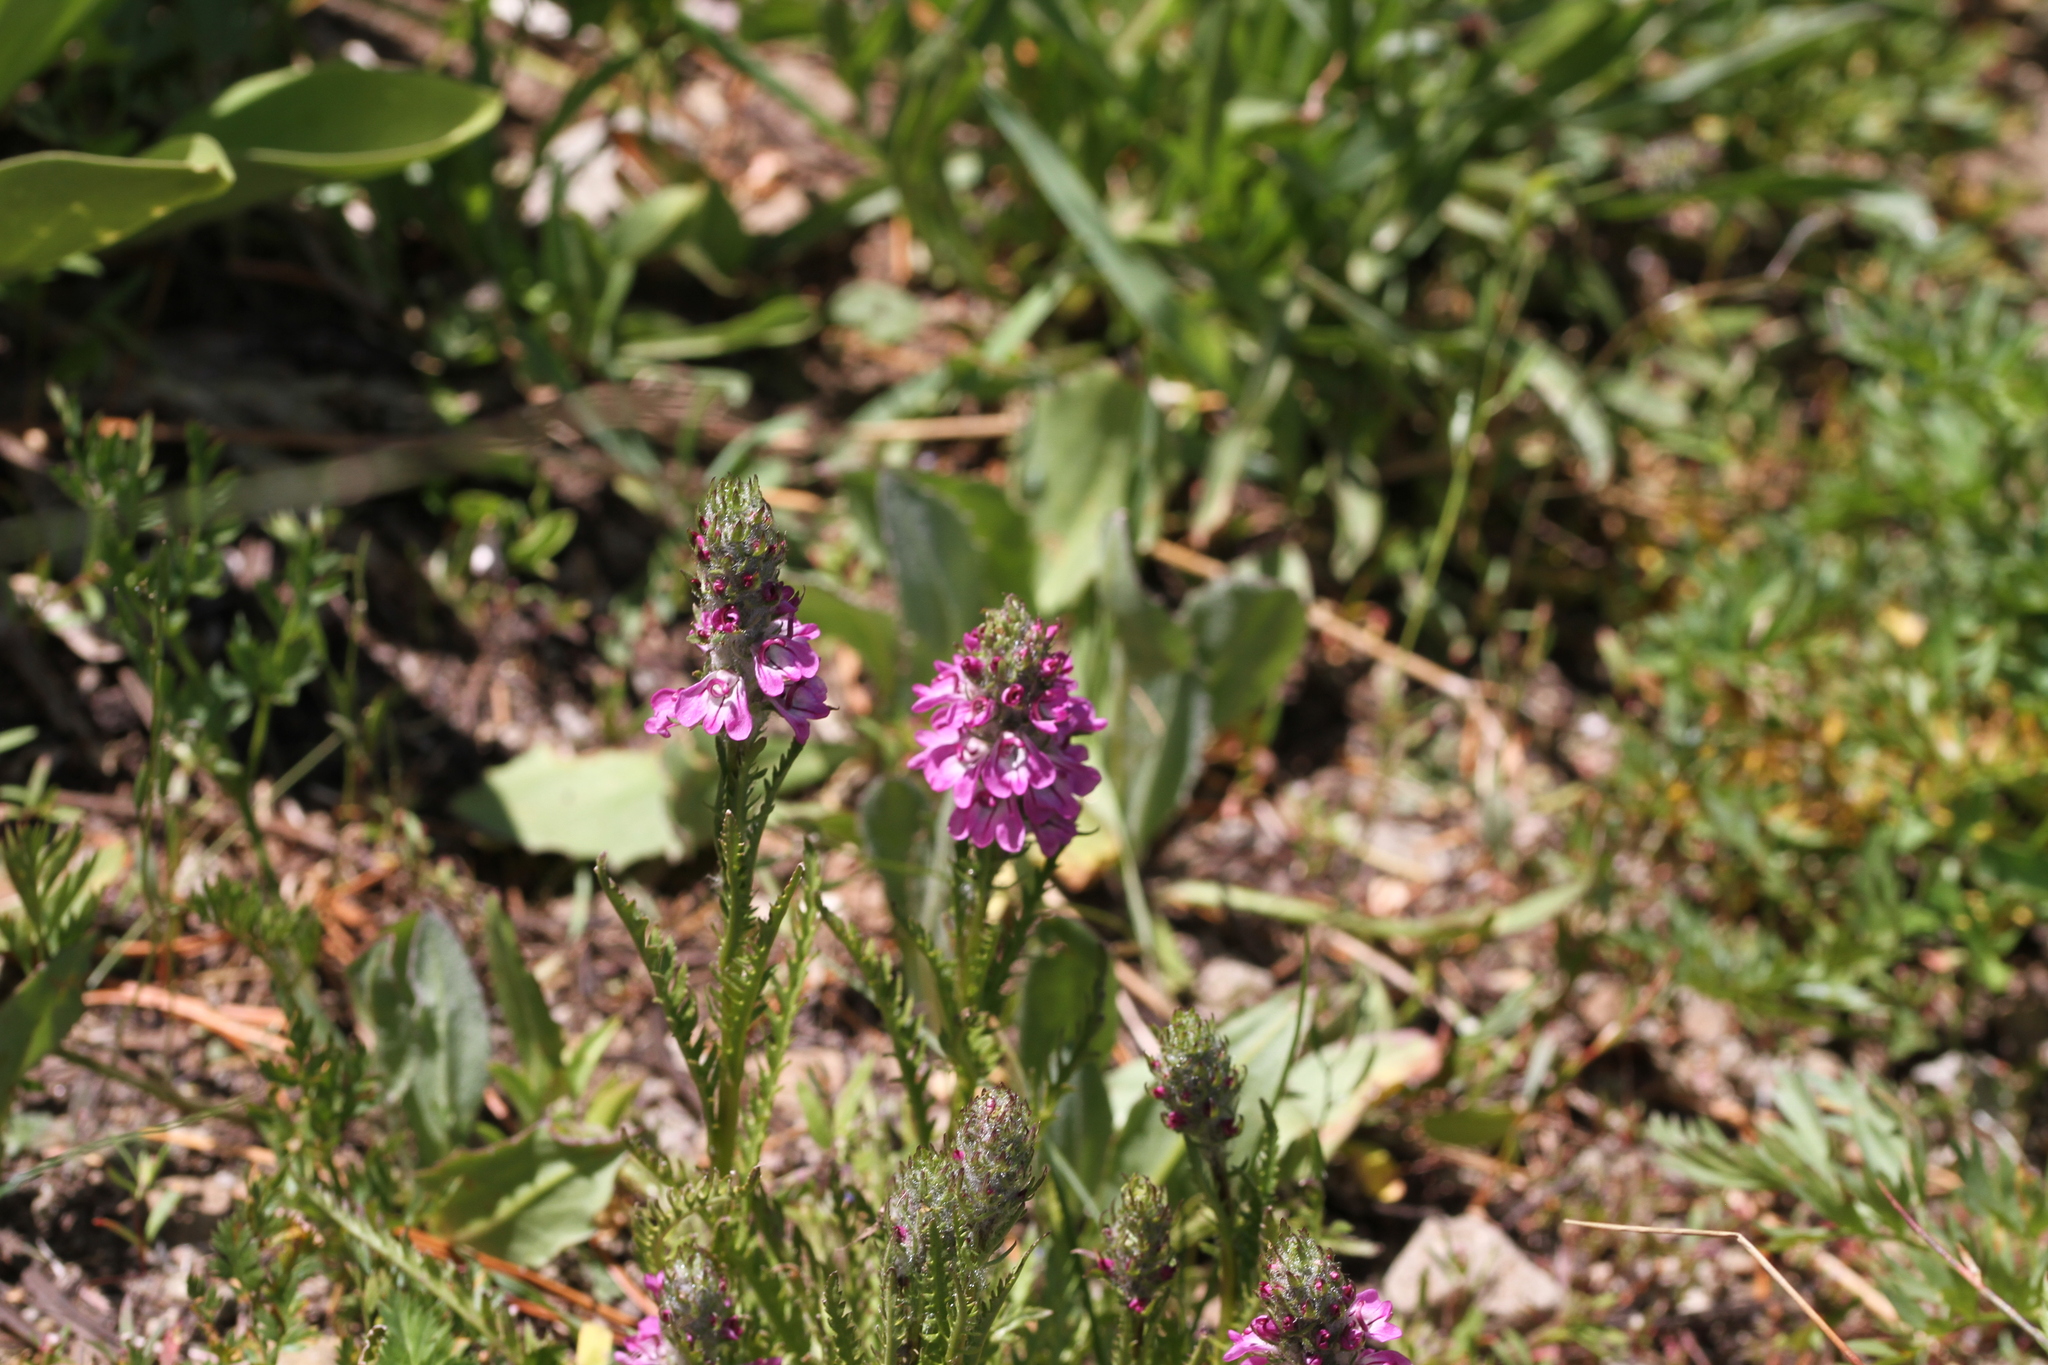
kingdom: Plantae
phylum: Tracheophyta
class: Magnoliopsida
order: Lamiales
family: Orobanchaceae
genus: Pedicularis
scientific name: Pedicularis attollens
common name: Slender pedicularis
